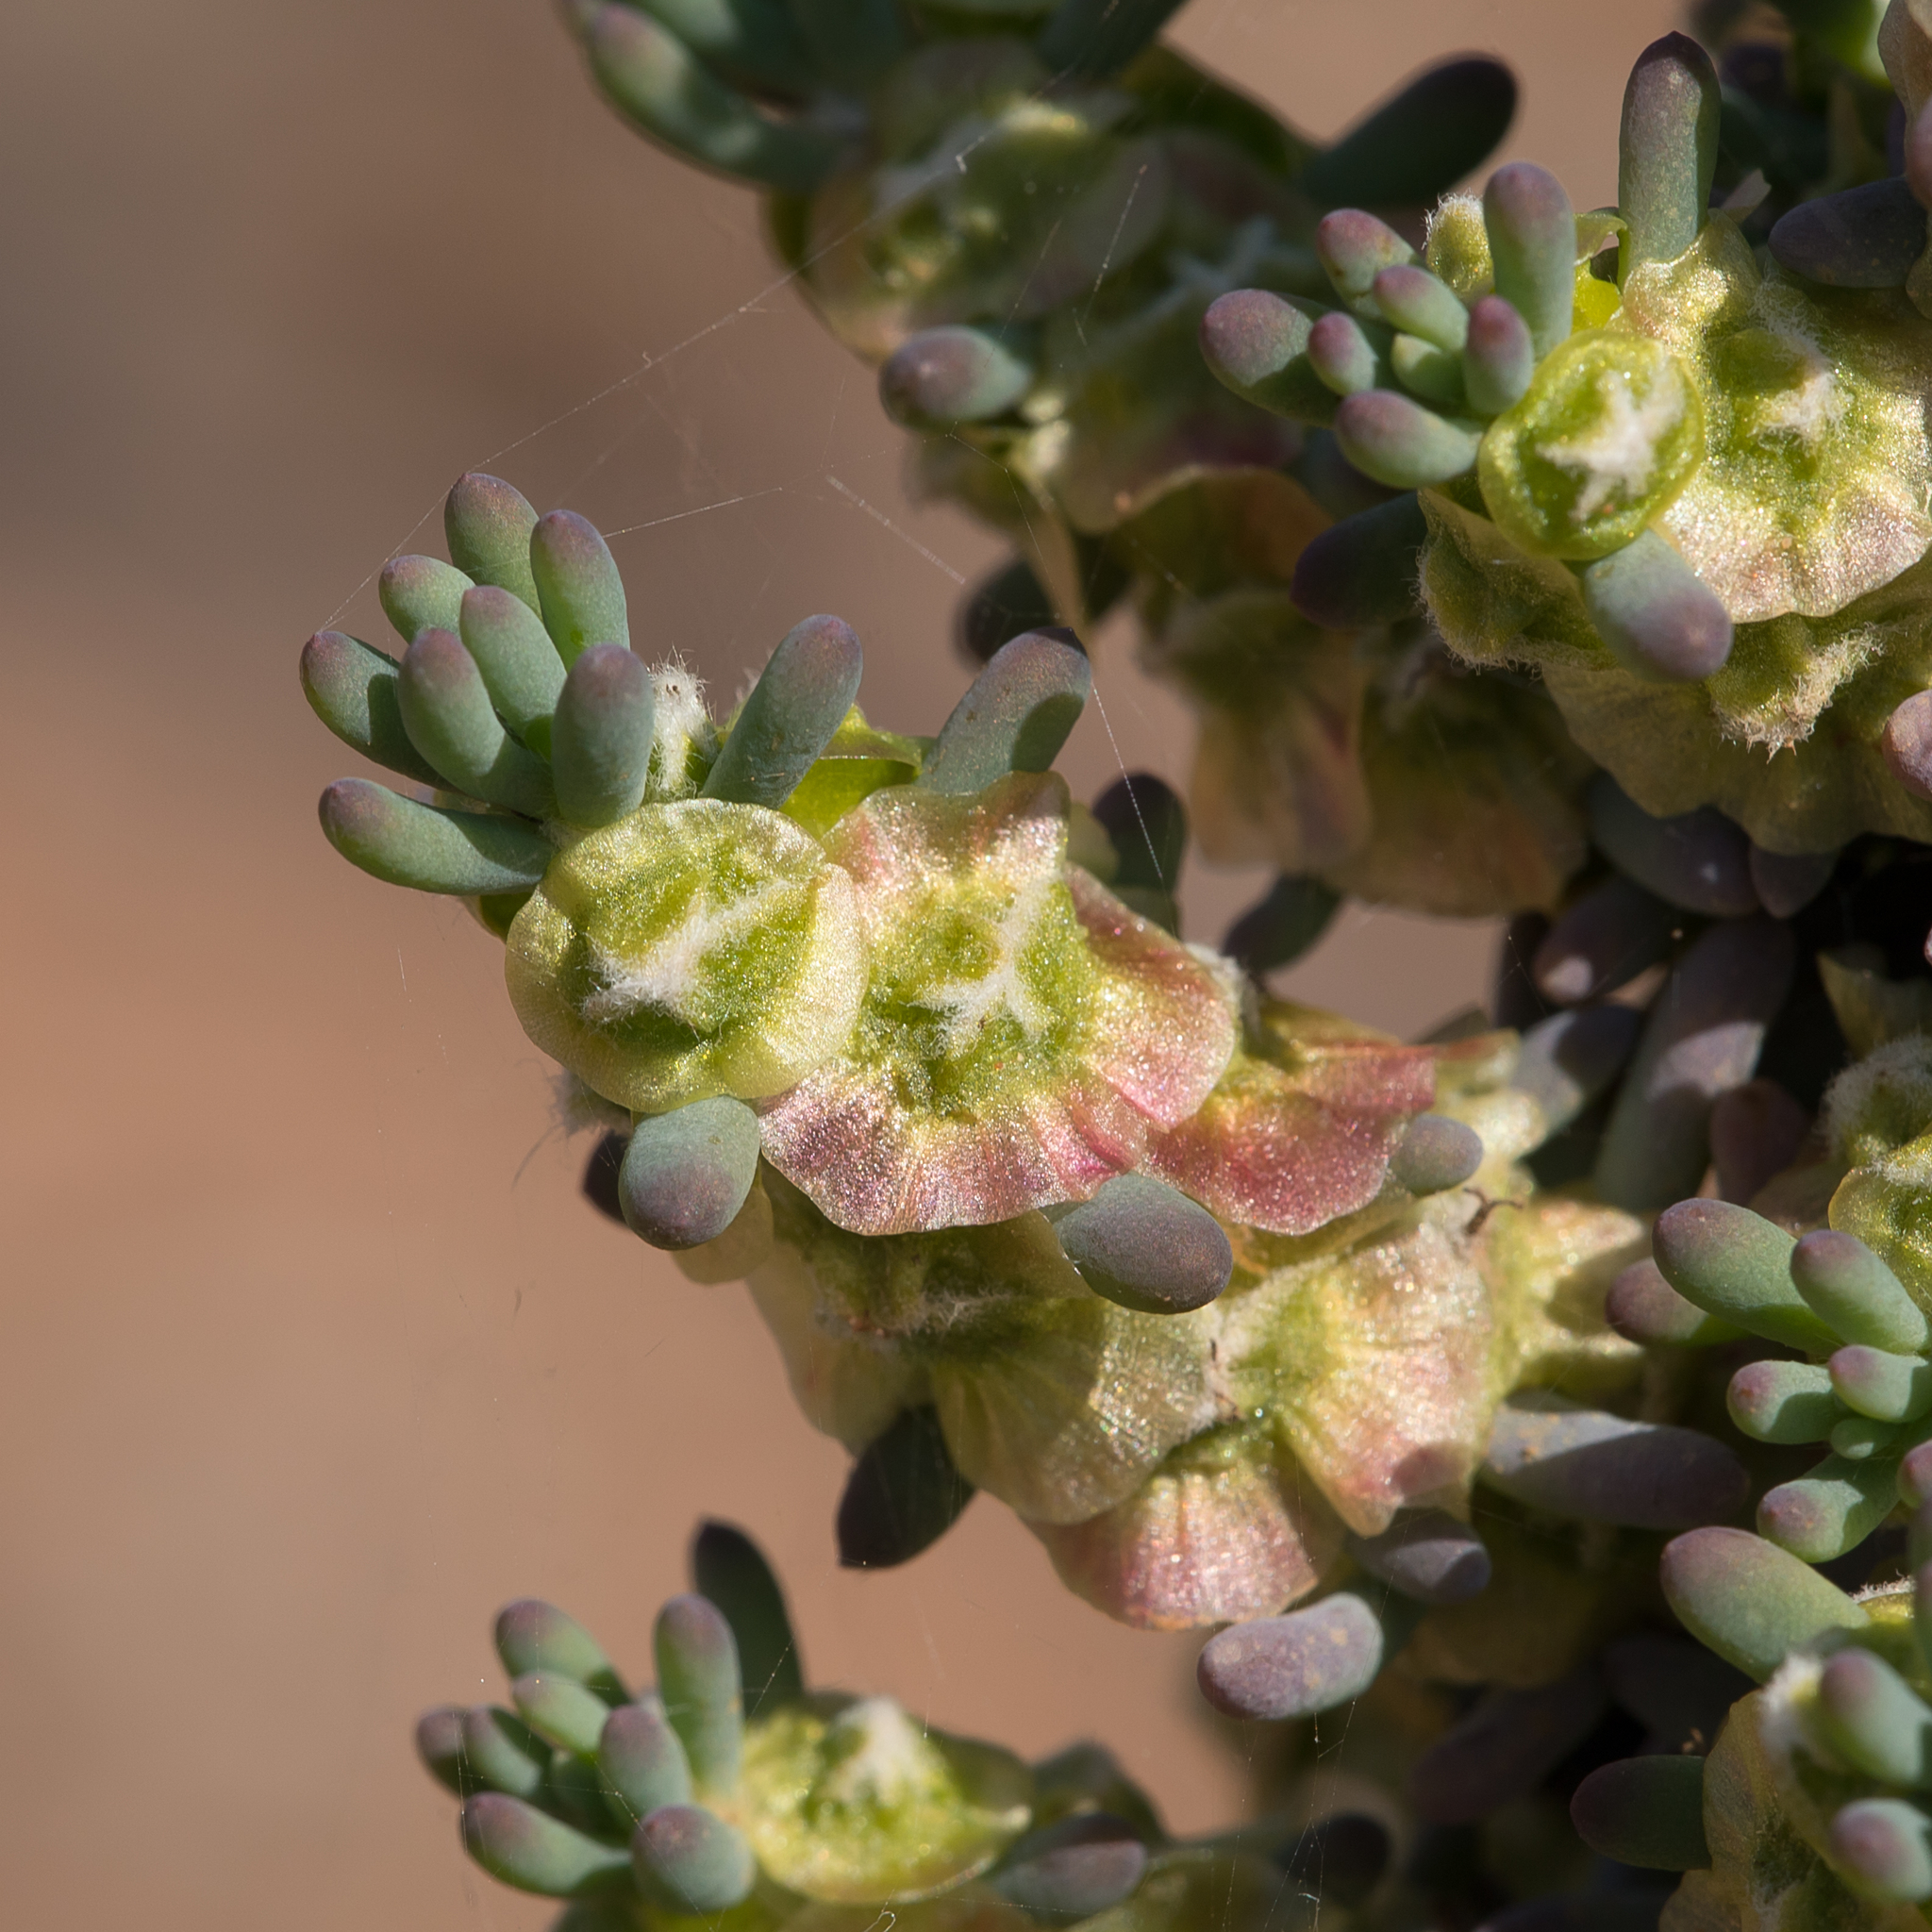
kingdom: Plantae
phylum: Tracheophyta
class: Magnoliopsida
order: Caryophyllales
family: Amaranthaceae
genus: Maireana
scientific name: Maireana pentatropis
